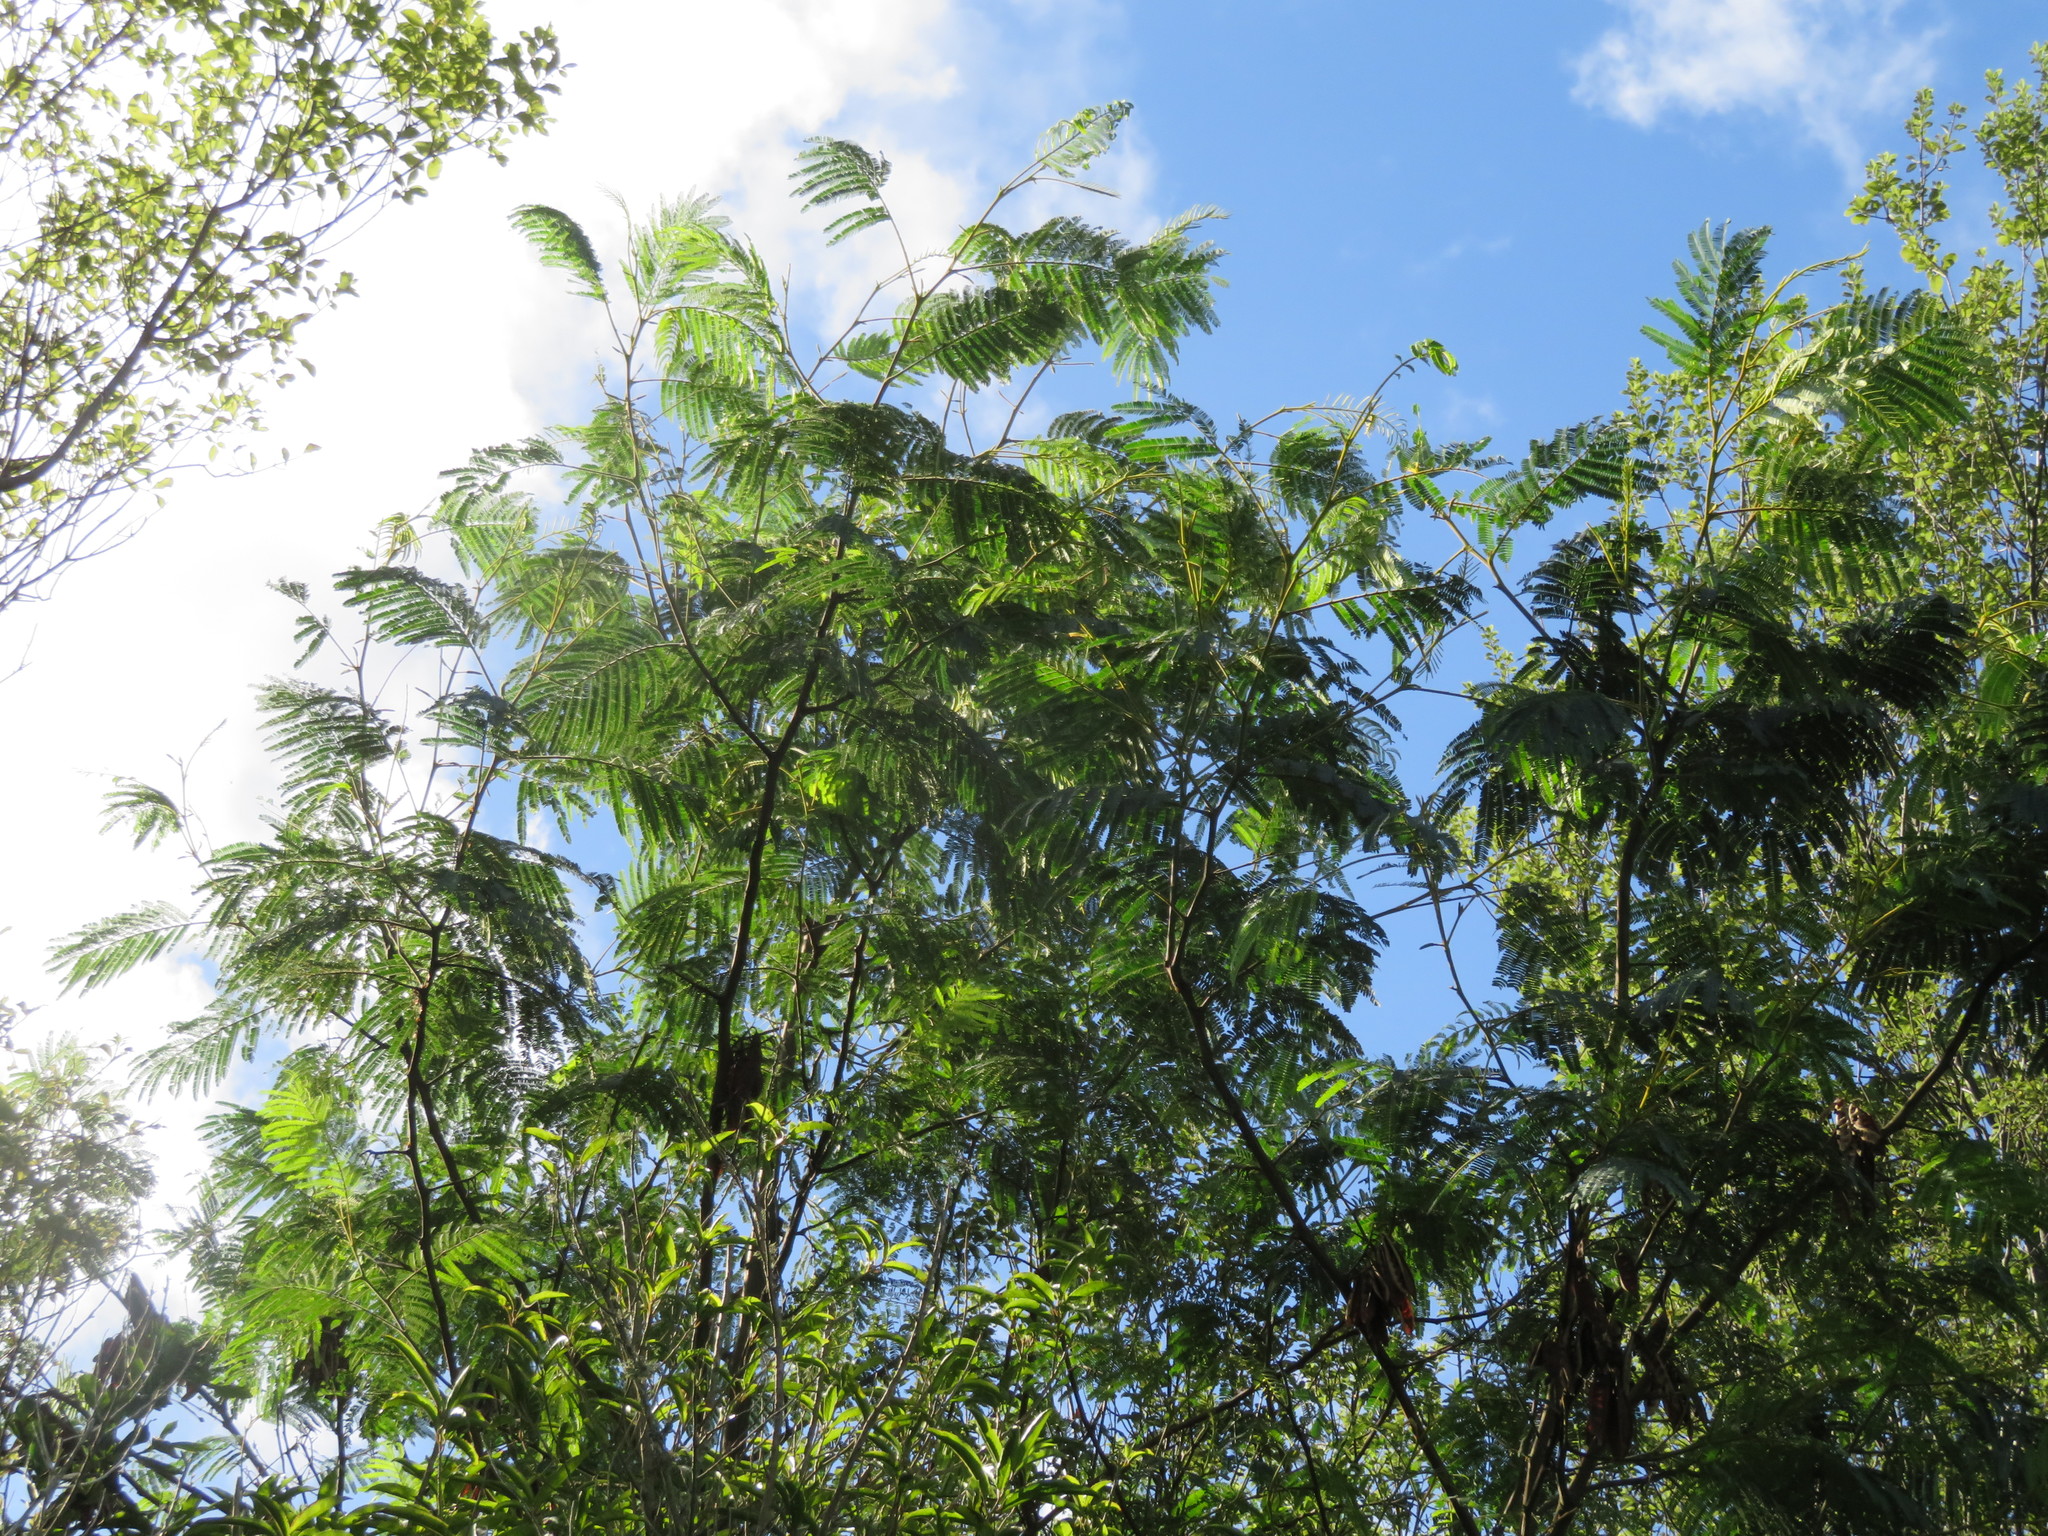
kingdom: Plantae
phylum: Tracheophyta
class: Magnoliopsida
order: Fabales
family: Fabaceae
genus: Paraserianthes
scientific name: Paraserianthes lophantha
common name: Plume albizia
